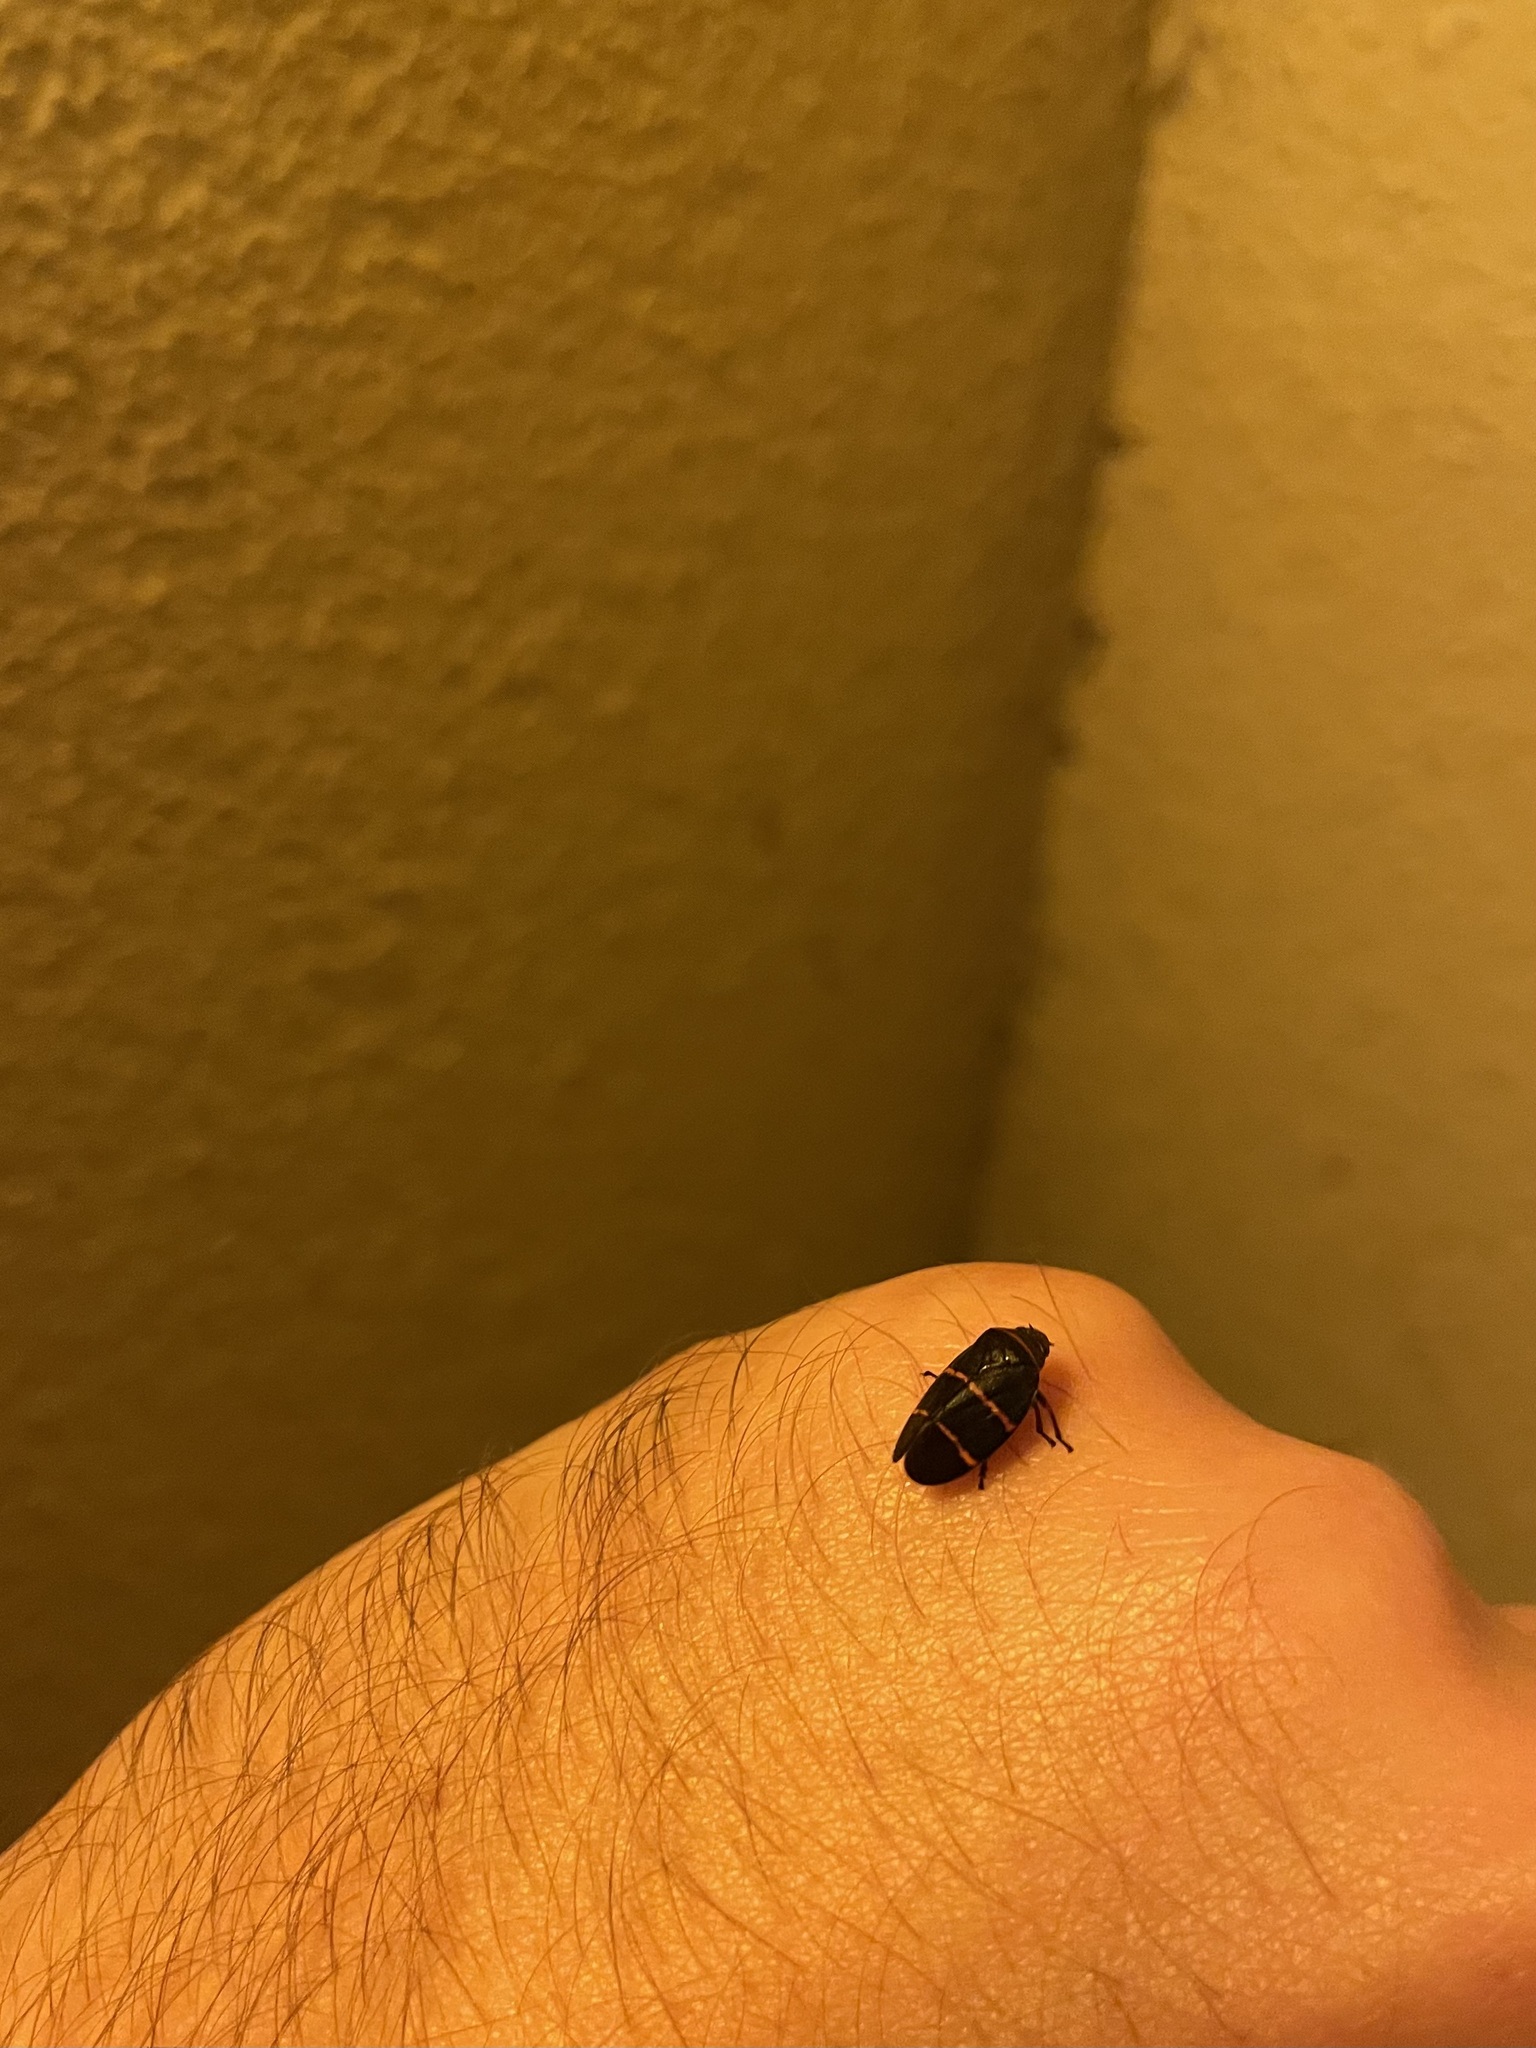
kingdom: Animalia
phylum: Arthropoda
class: Insecta
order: Hemiptera
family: Cercopidae
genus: Prosapia
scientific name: Prosapia bicincta
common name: Twolined spittlebug
